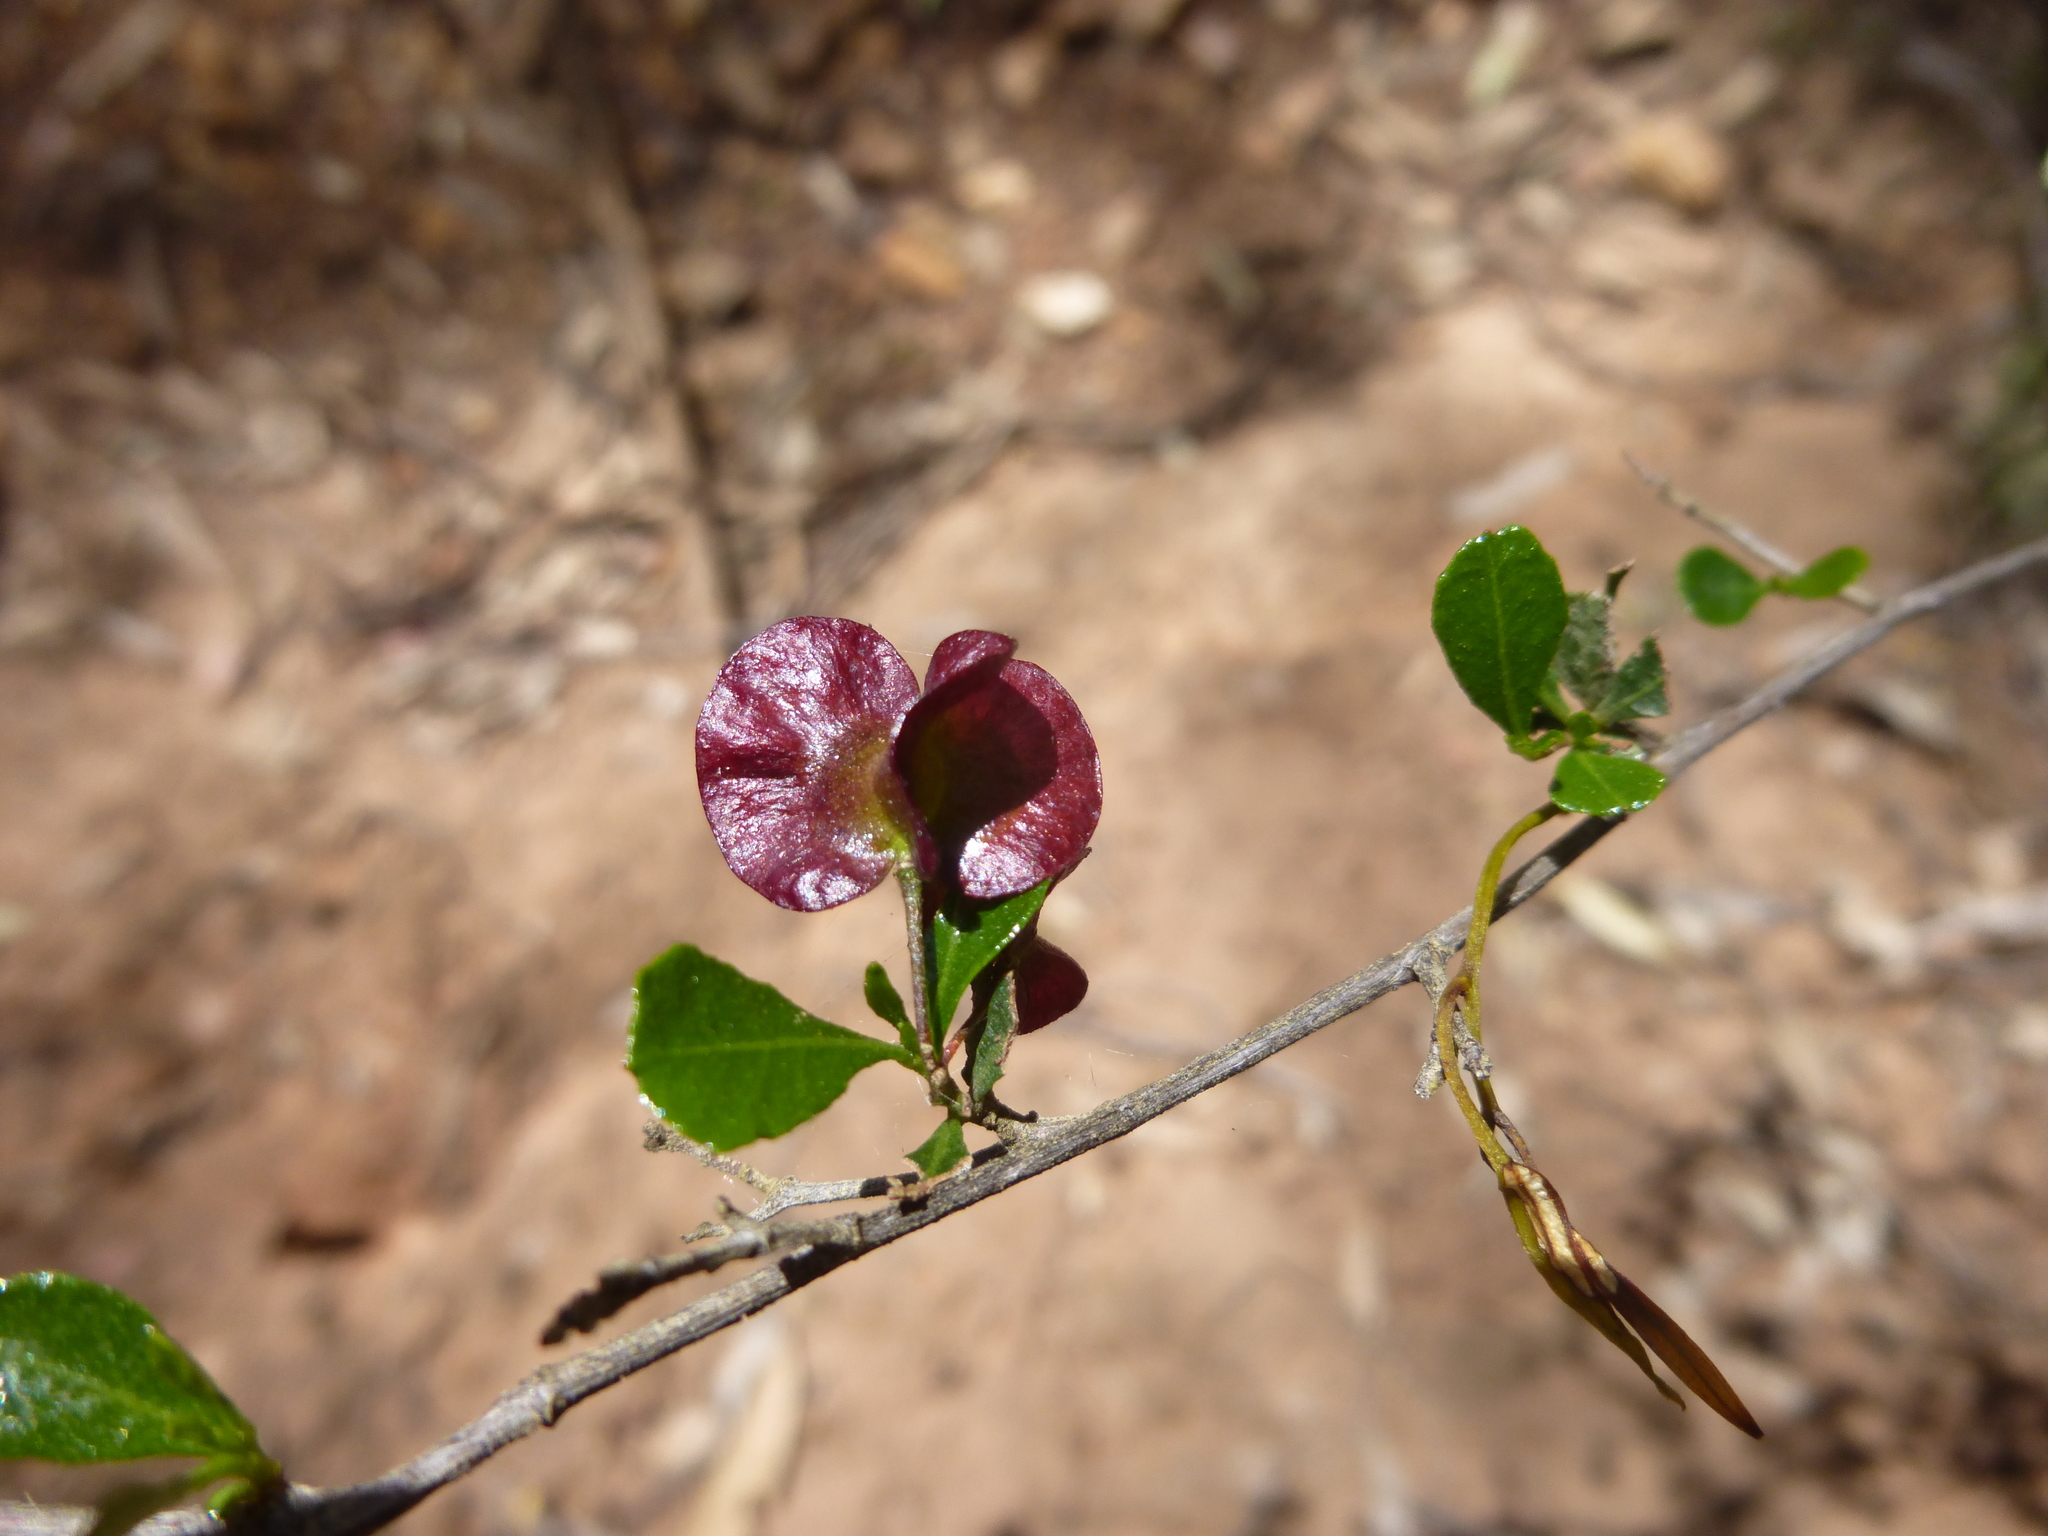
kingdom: Plantae
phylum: Tracheophyta
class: Magnoliopsida
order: Sapindales
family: Sapindaceae
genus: Dodonaea
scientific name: Dodonaea viscosa
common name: Hopbush
